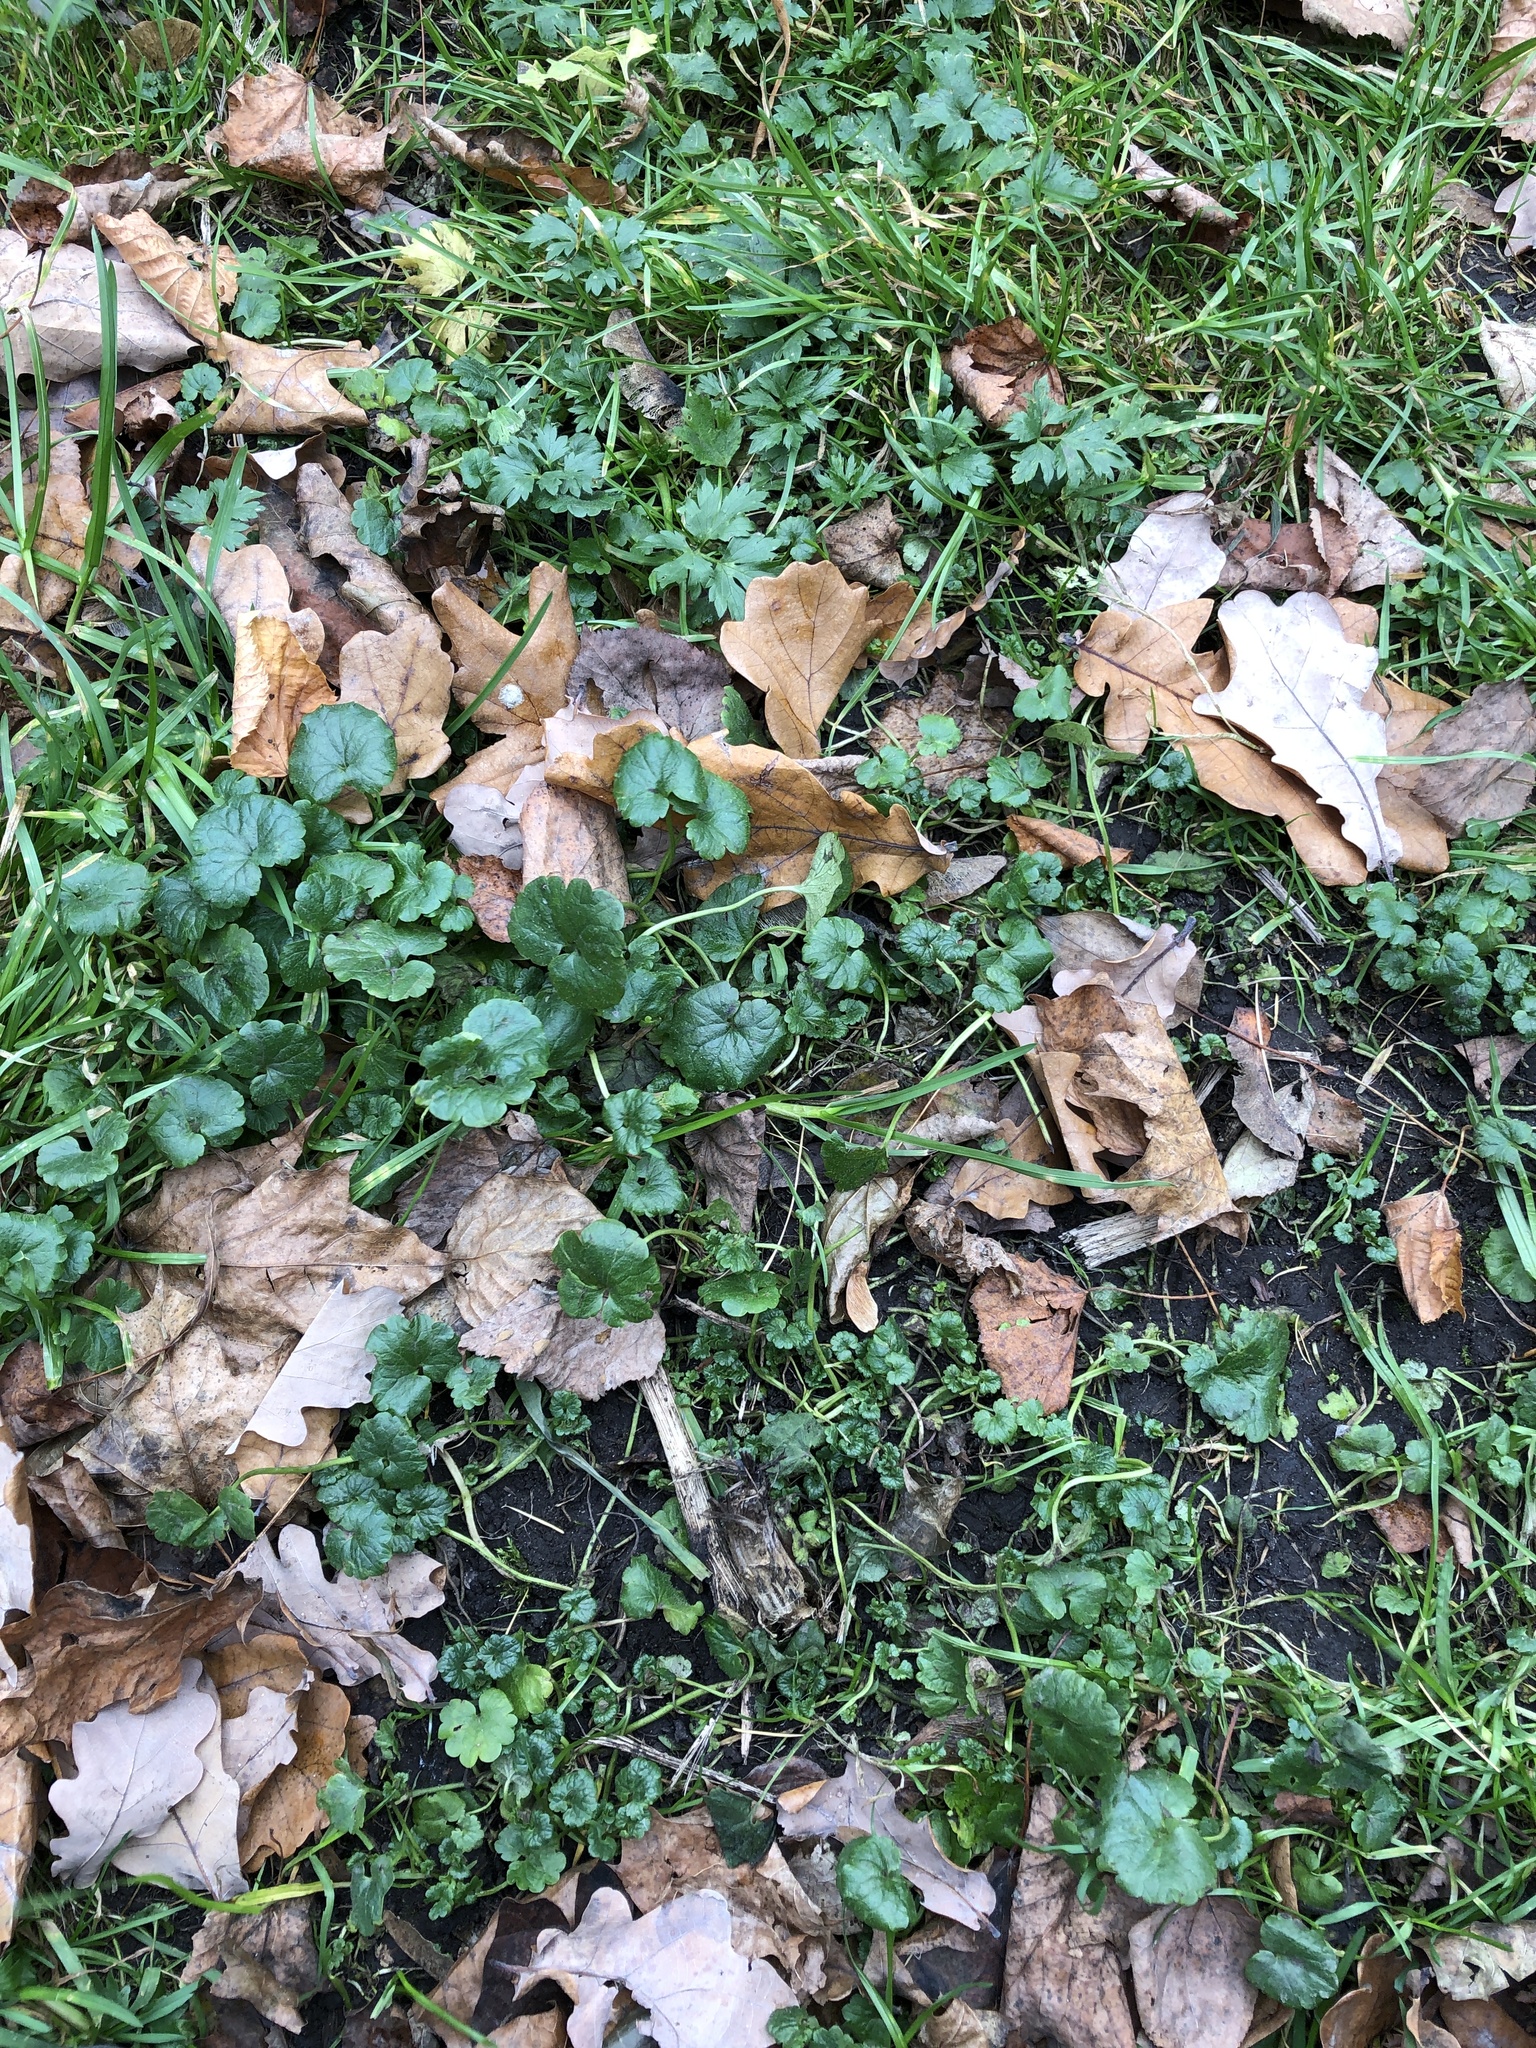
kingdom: Plantae
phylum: Tracheophyta
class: Magnoliopsida
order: Lamiales
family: Lamiaceae
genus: Glechoma
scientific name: Glechoma hederacea
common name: Ground ivy
